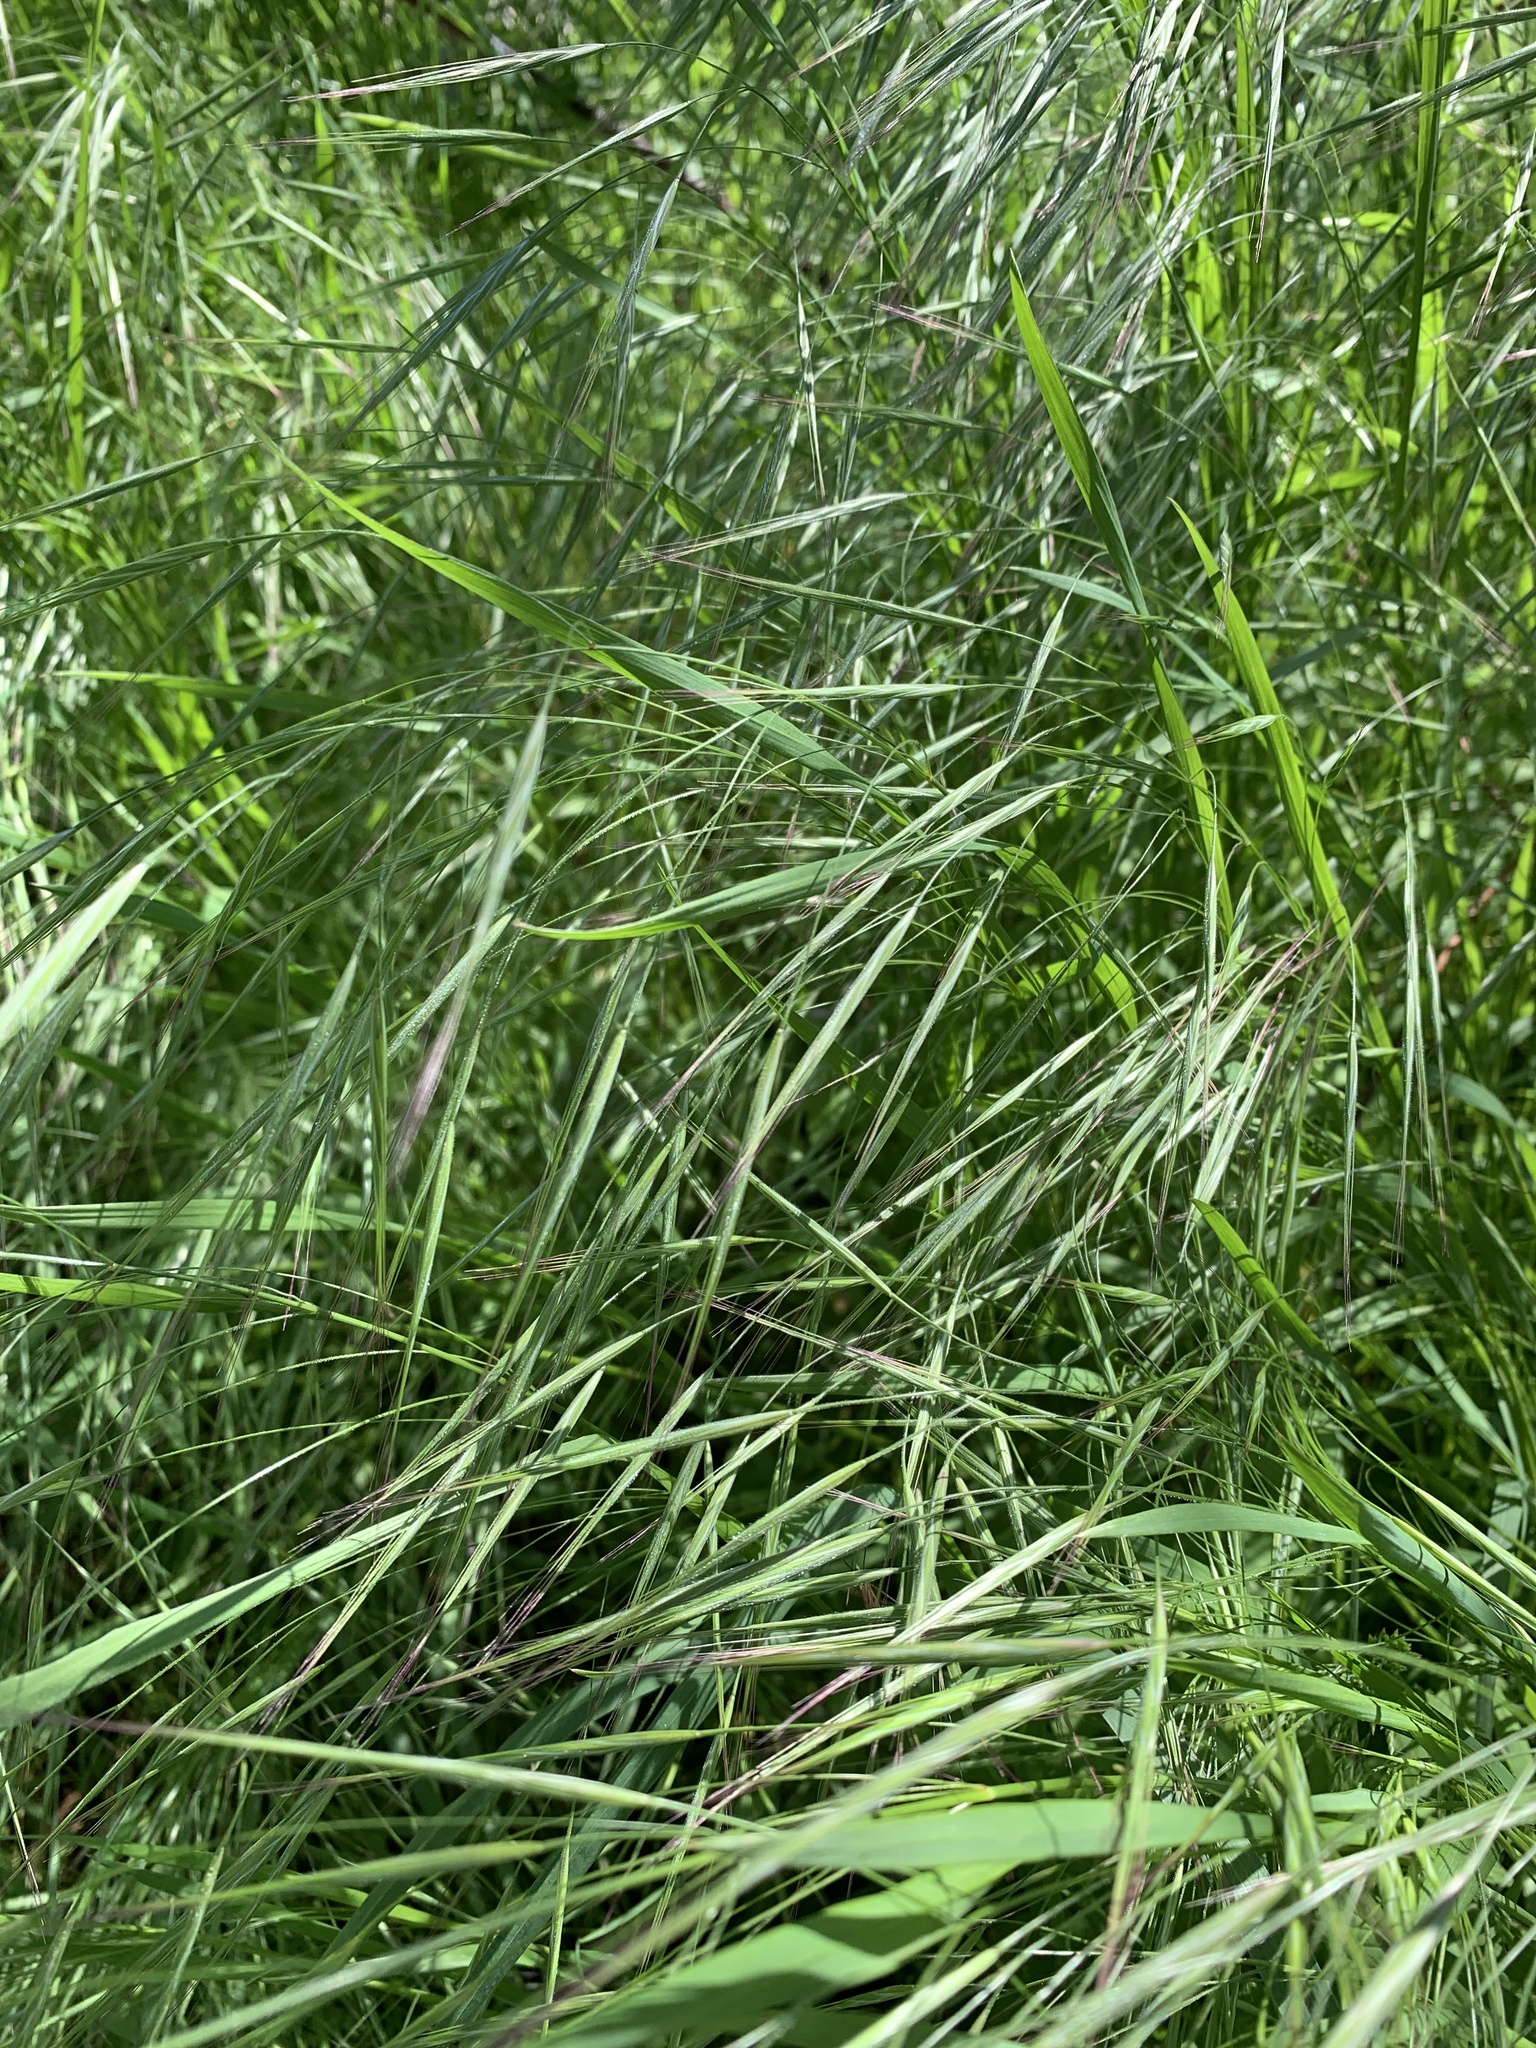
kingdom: Plantae
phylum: Tracheophyta
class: Liliopsida
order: Poales
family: Poaceae
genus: Bromus
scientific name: Bromus tectorum
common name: Cheatgrass
